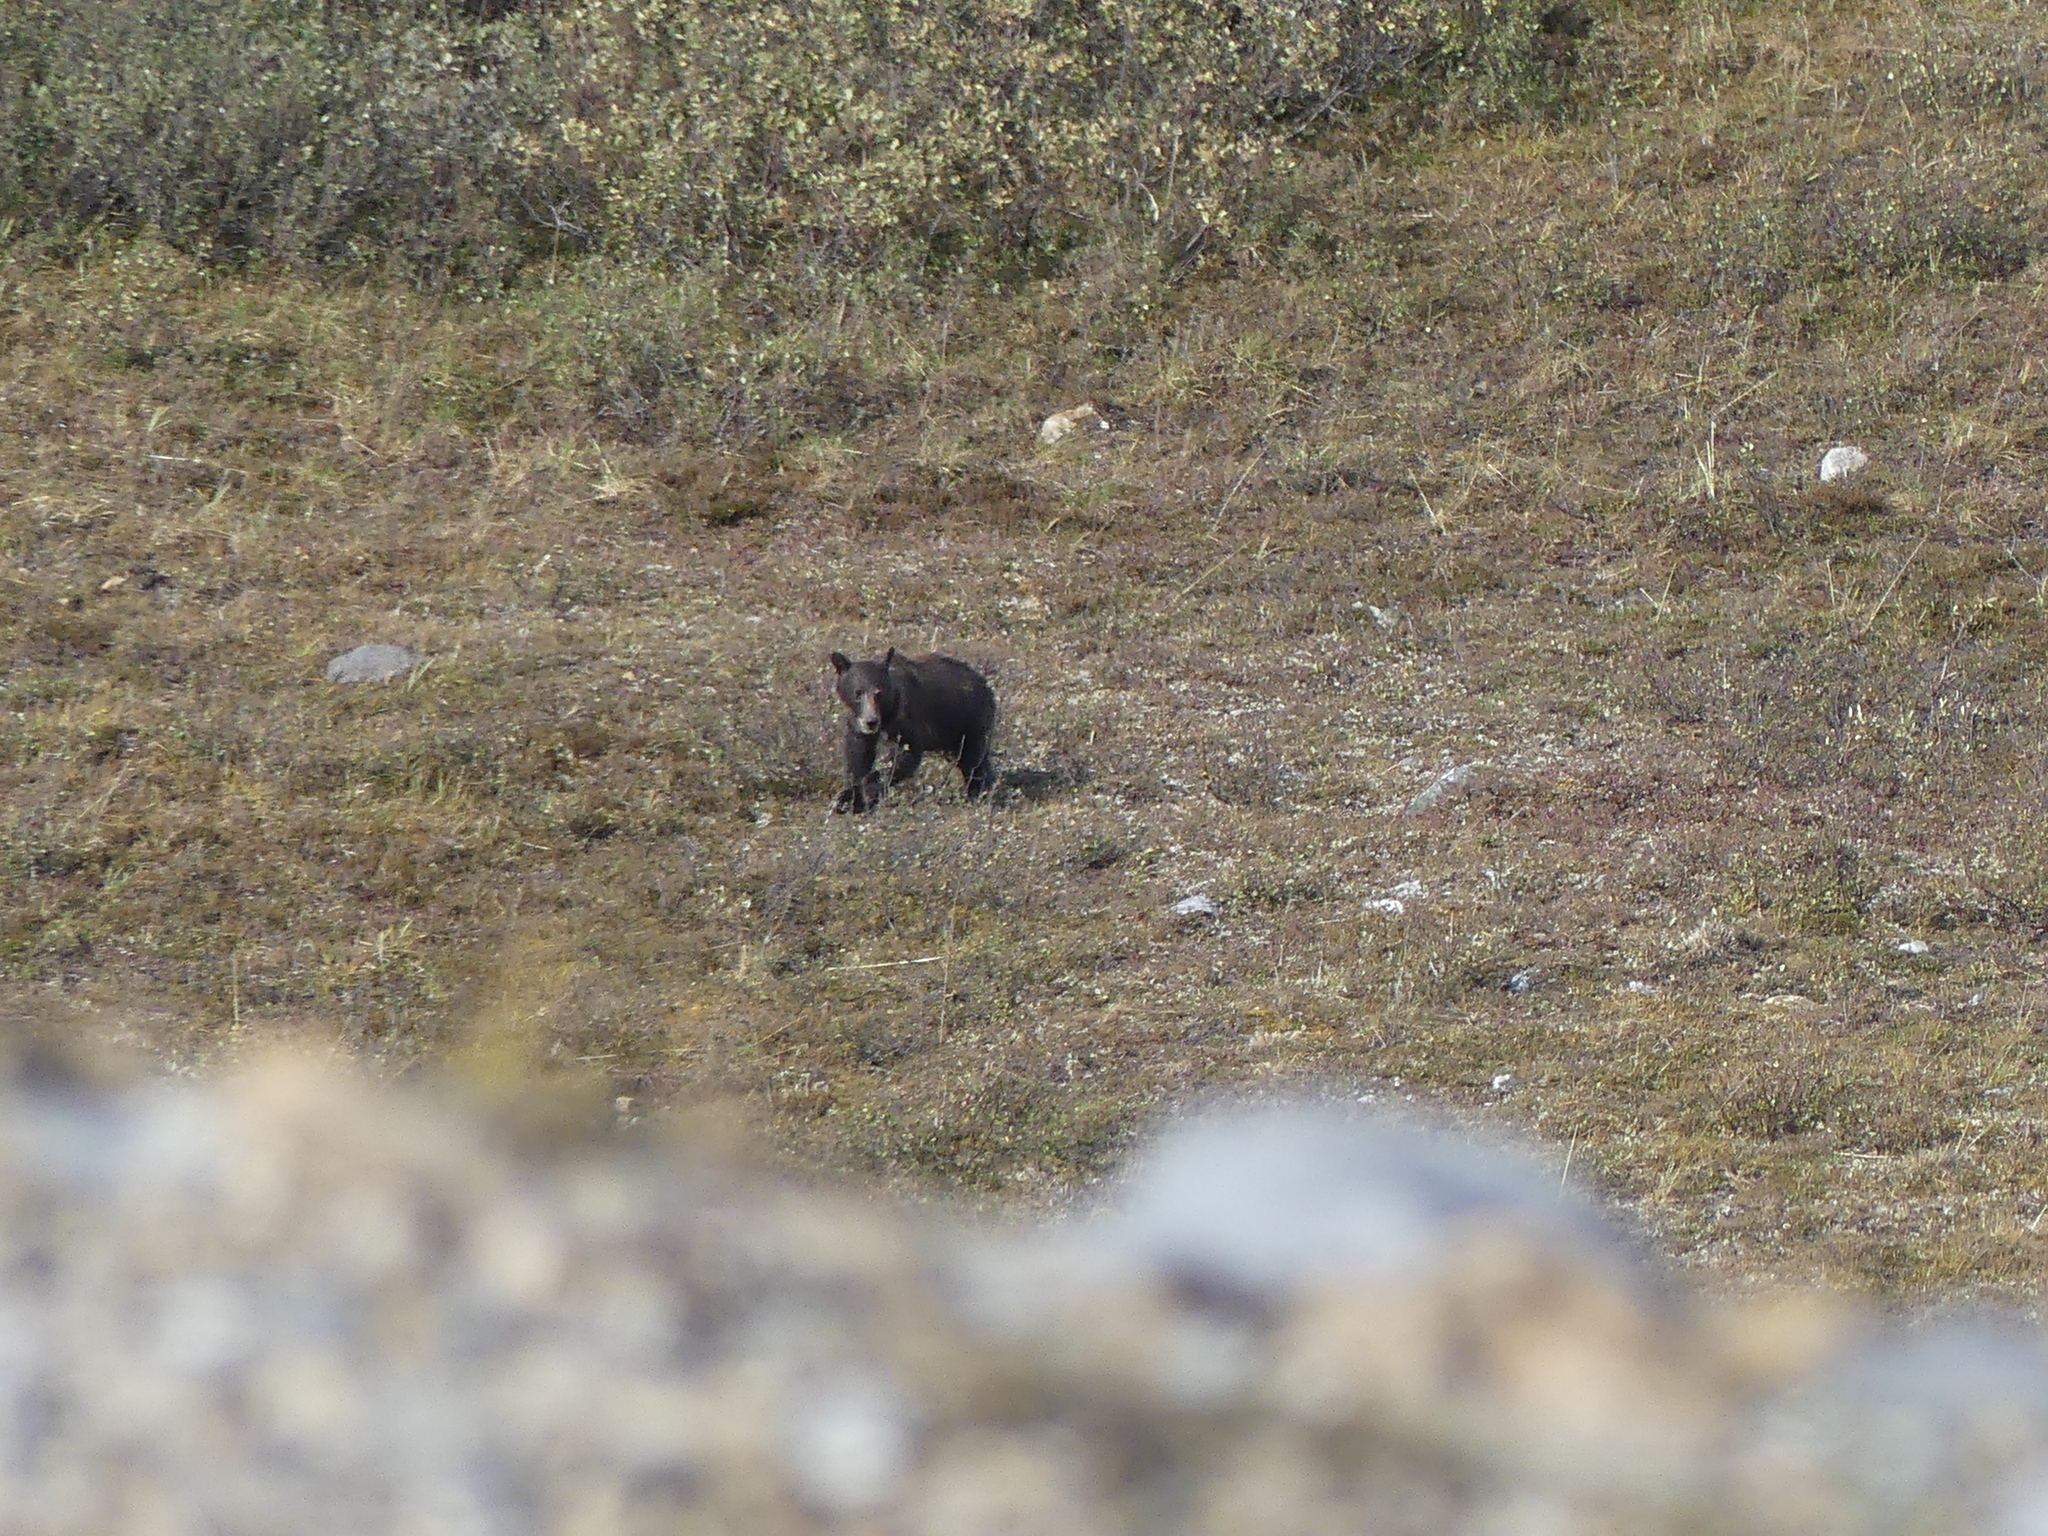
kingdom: Animalia
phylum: Chordata
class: Mammalia
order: Carnivora
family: Ursidae
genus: Ursus
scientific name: Ursus arctos
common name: Brown bear
